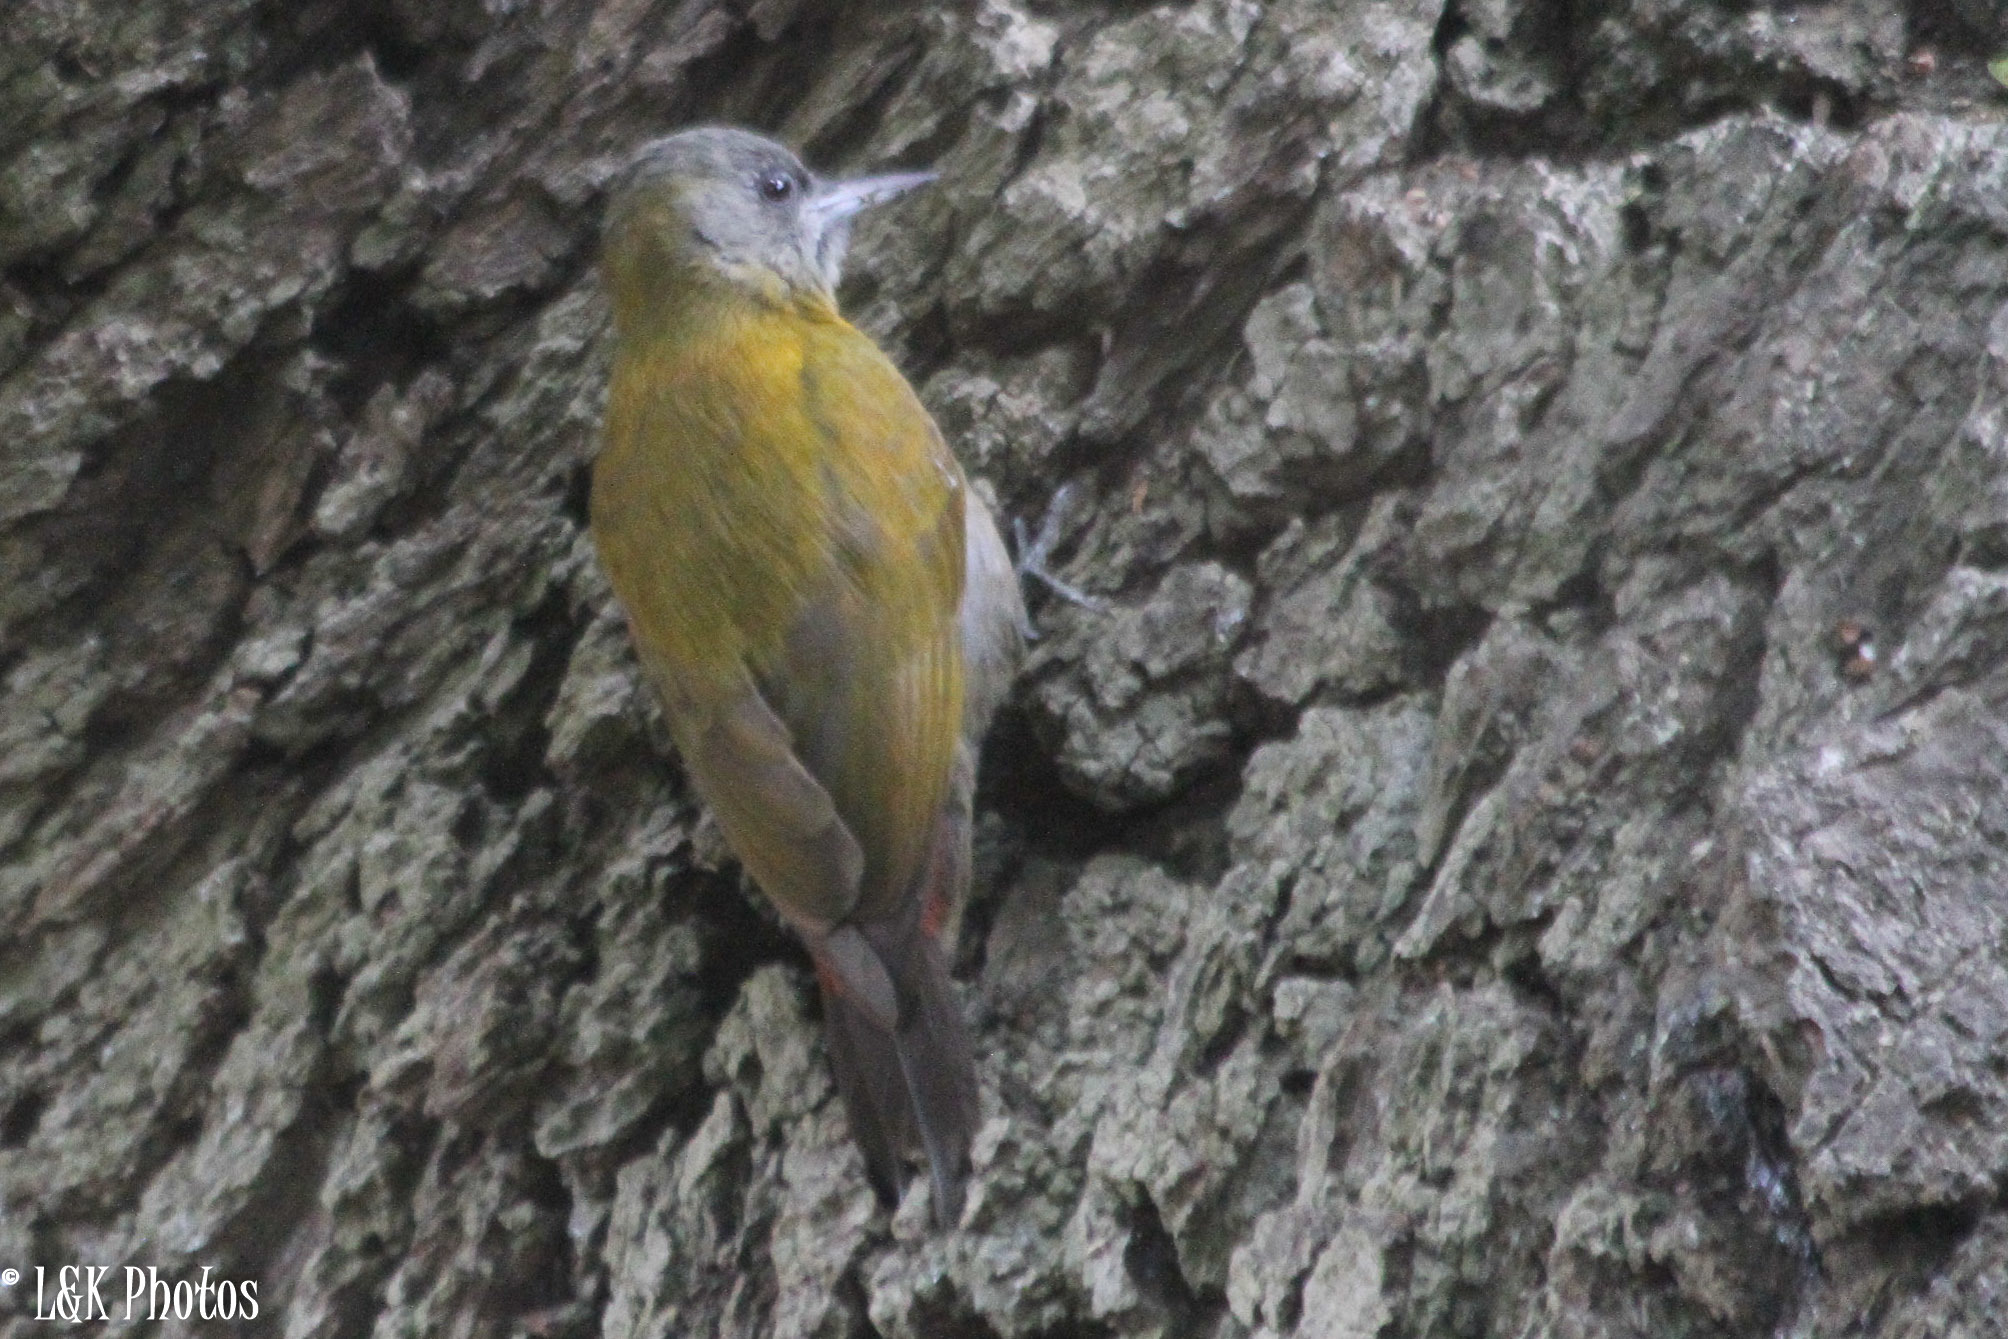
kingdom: Animalia
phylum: Chordata
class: Aves
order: Piciformes
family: Picidae
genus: Dendropicos
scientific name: Dendropicos griseocephalus
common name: Olive woodpecker
